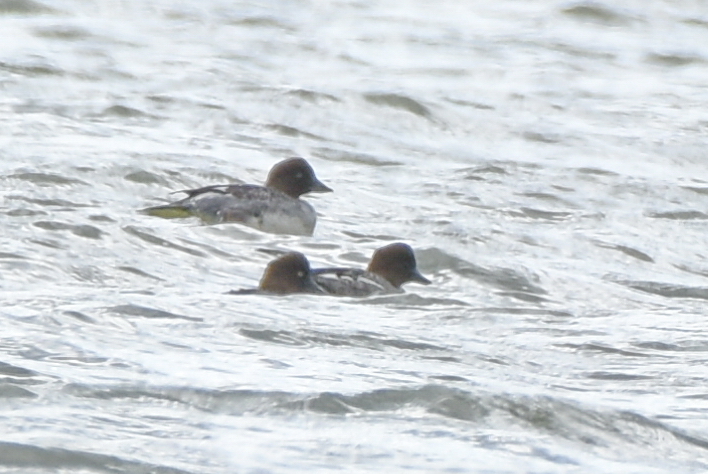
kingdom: Animalia
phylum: Chordata
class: Aves
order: Anseriformes
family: Anatidae
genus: Bucephala
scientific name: Bucephala clangula
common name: Common goldeneye
